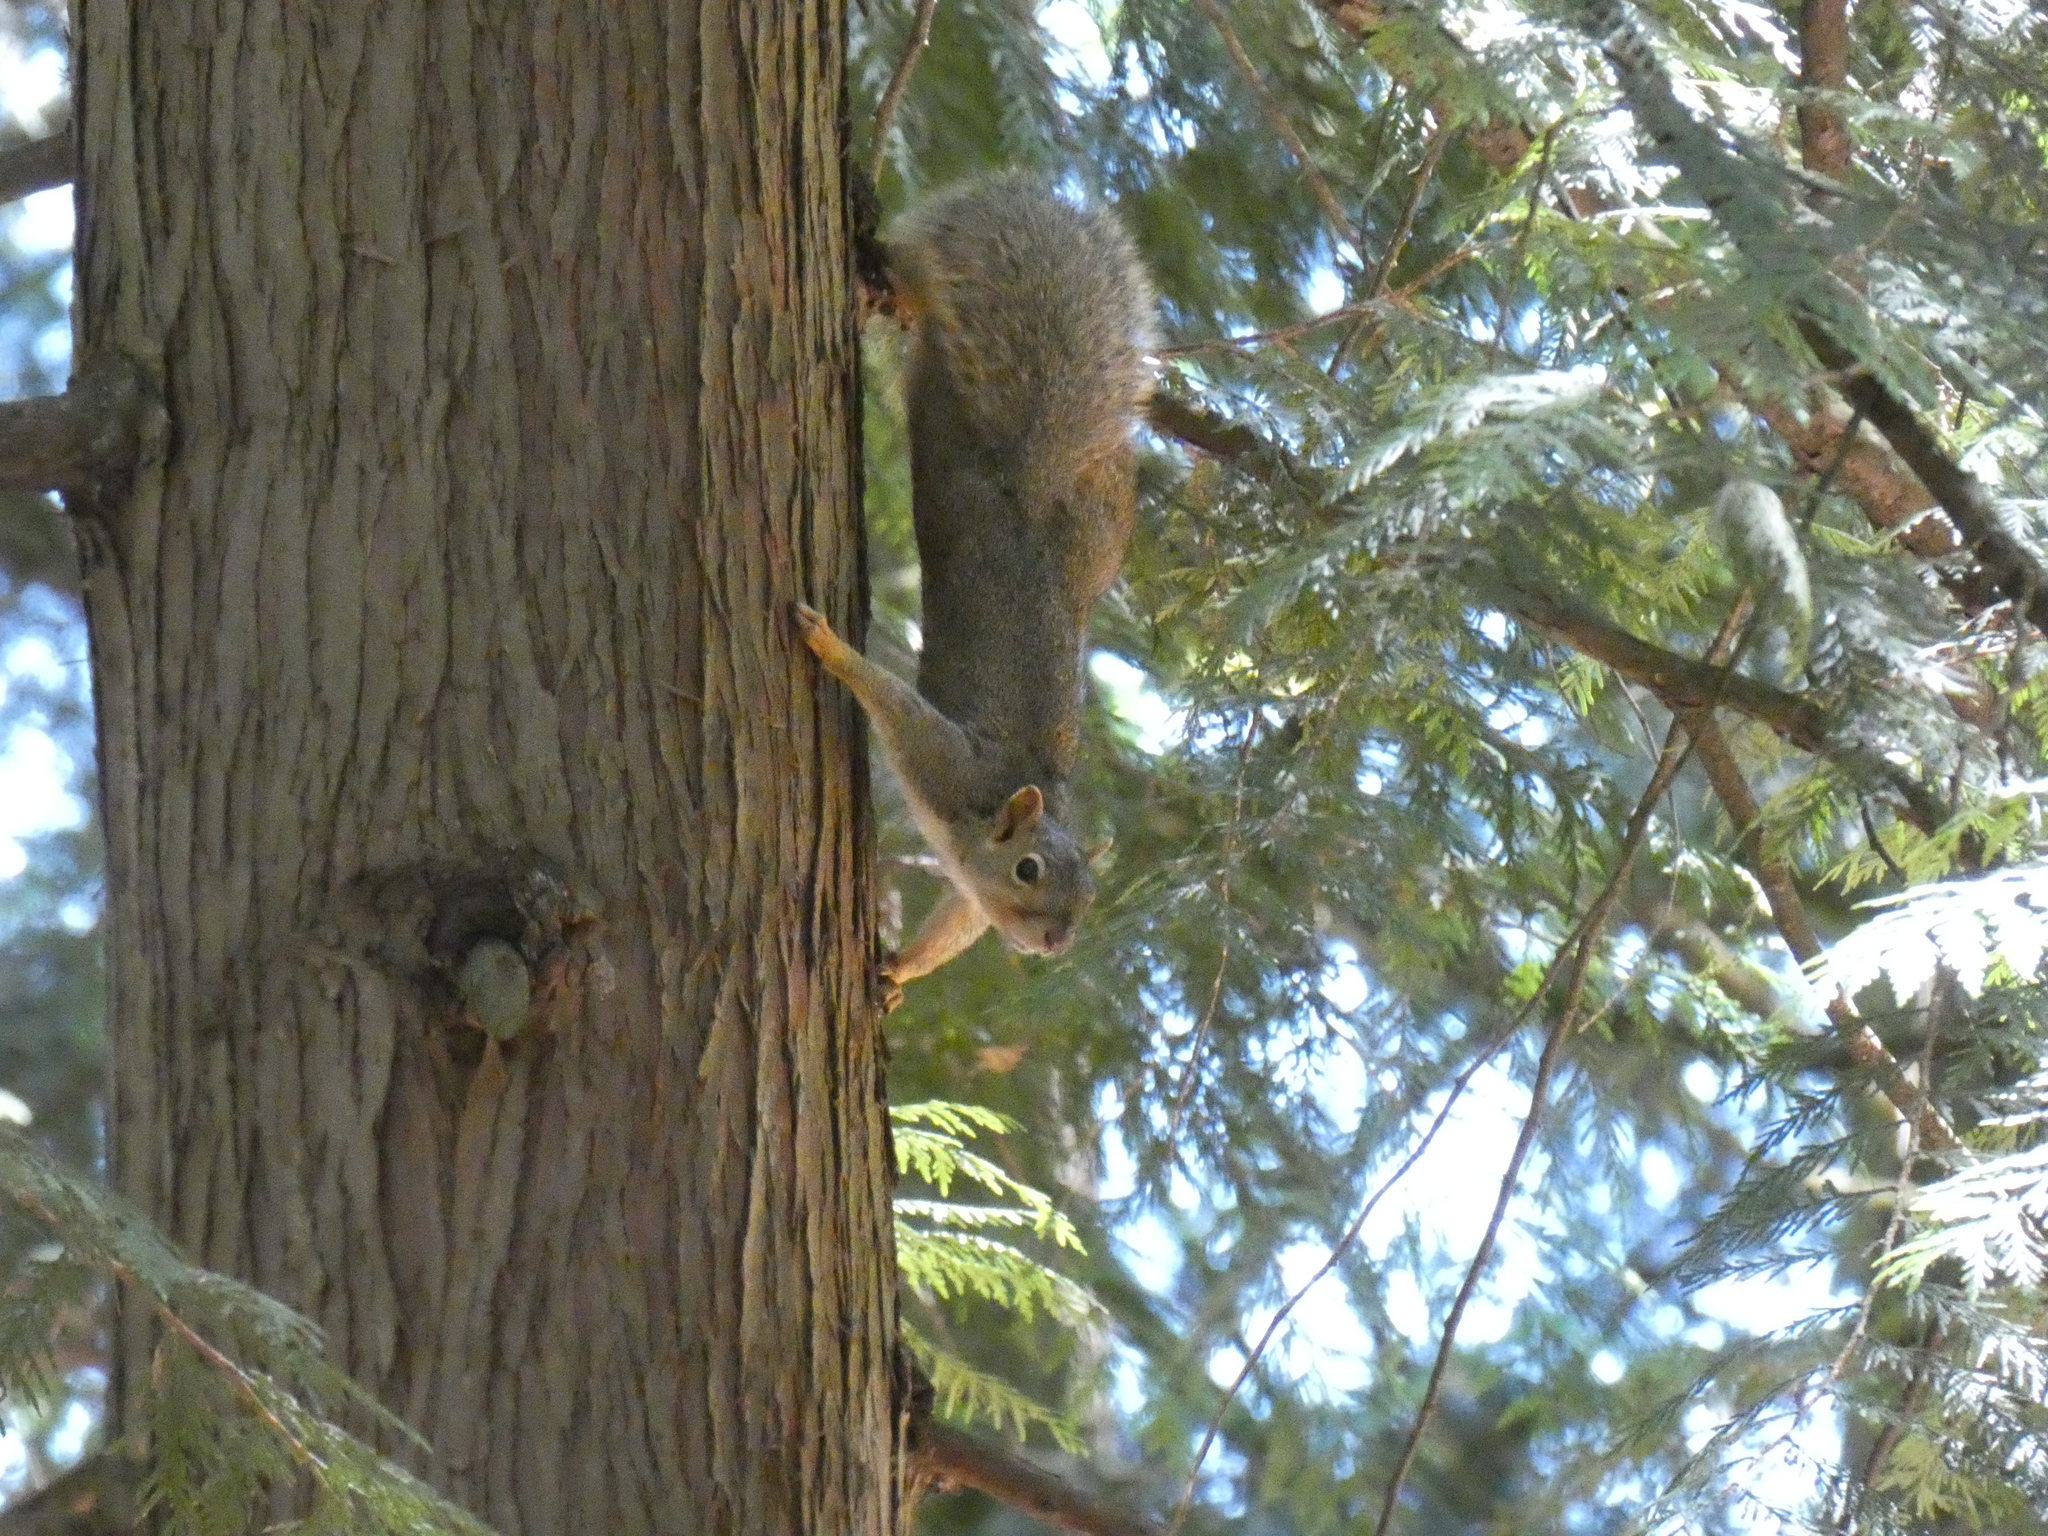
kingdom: Animalia
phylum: Chordata
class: Mammalia
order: Rodentia
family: Sciuridae
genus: Sciurus
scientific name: Sciurus carolinensis
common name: Eastern gray squirrel
